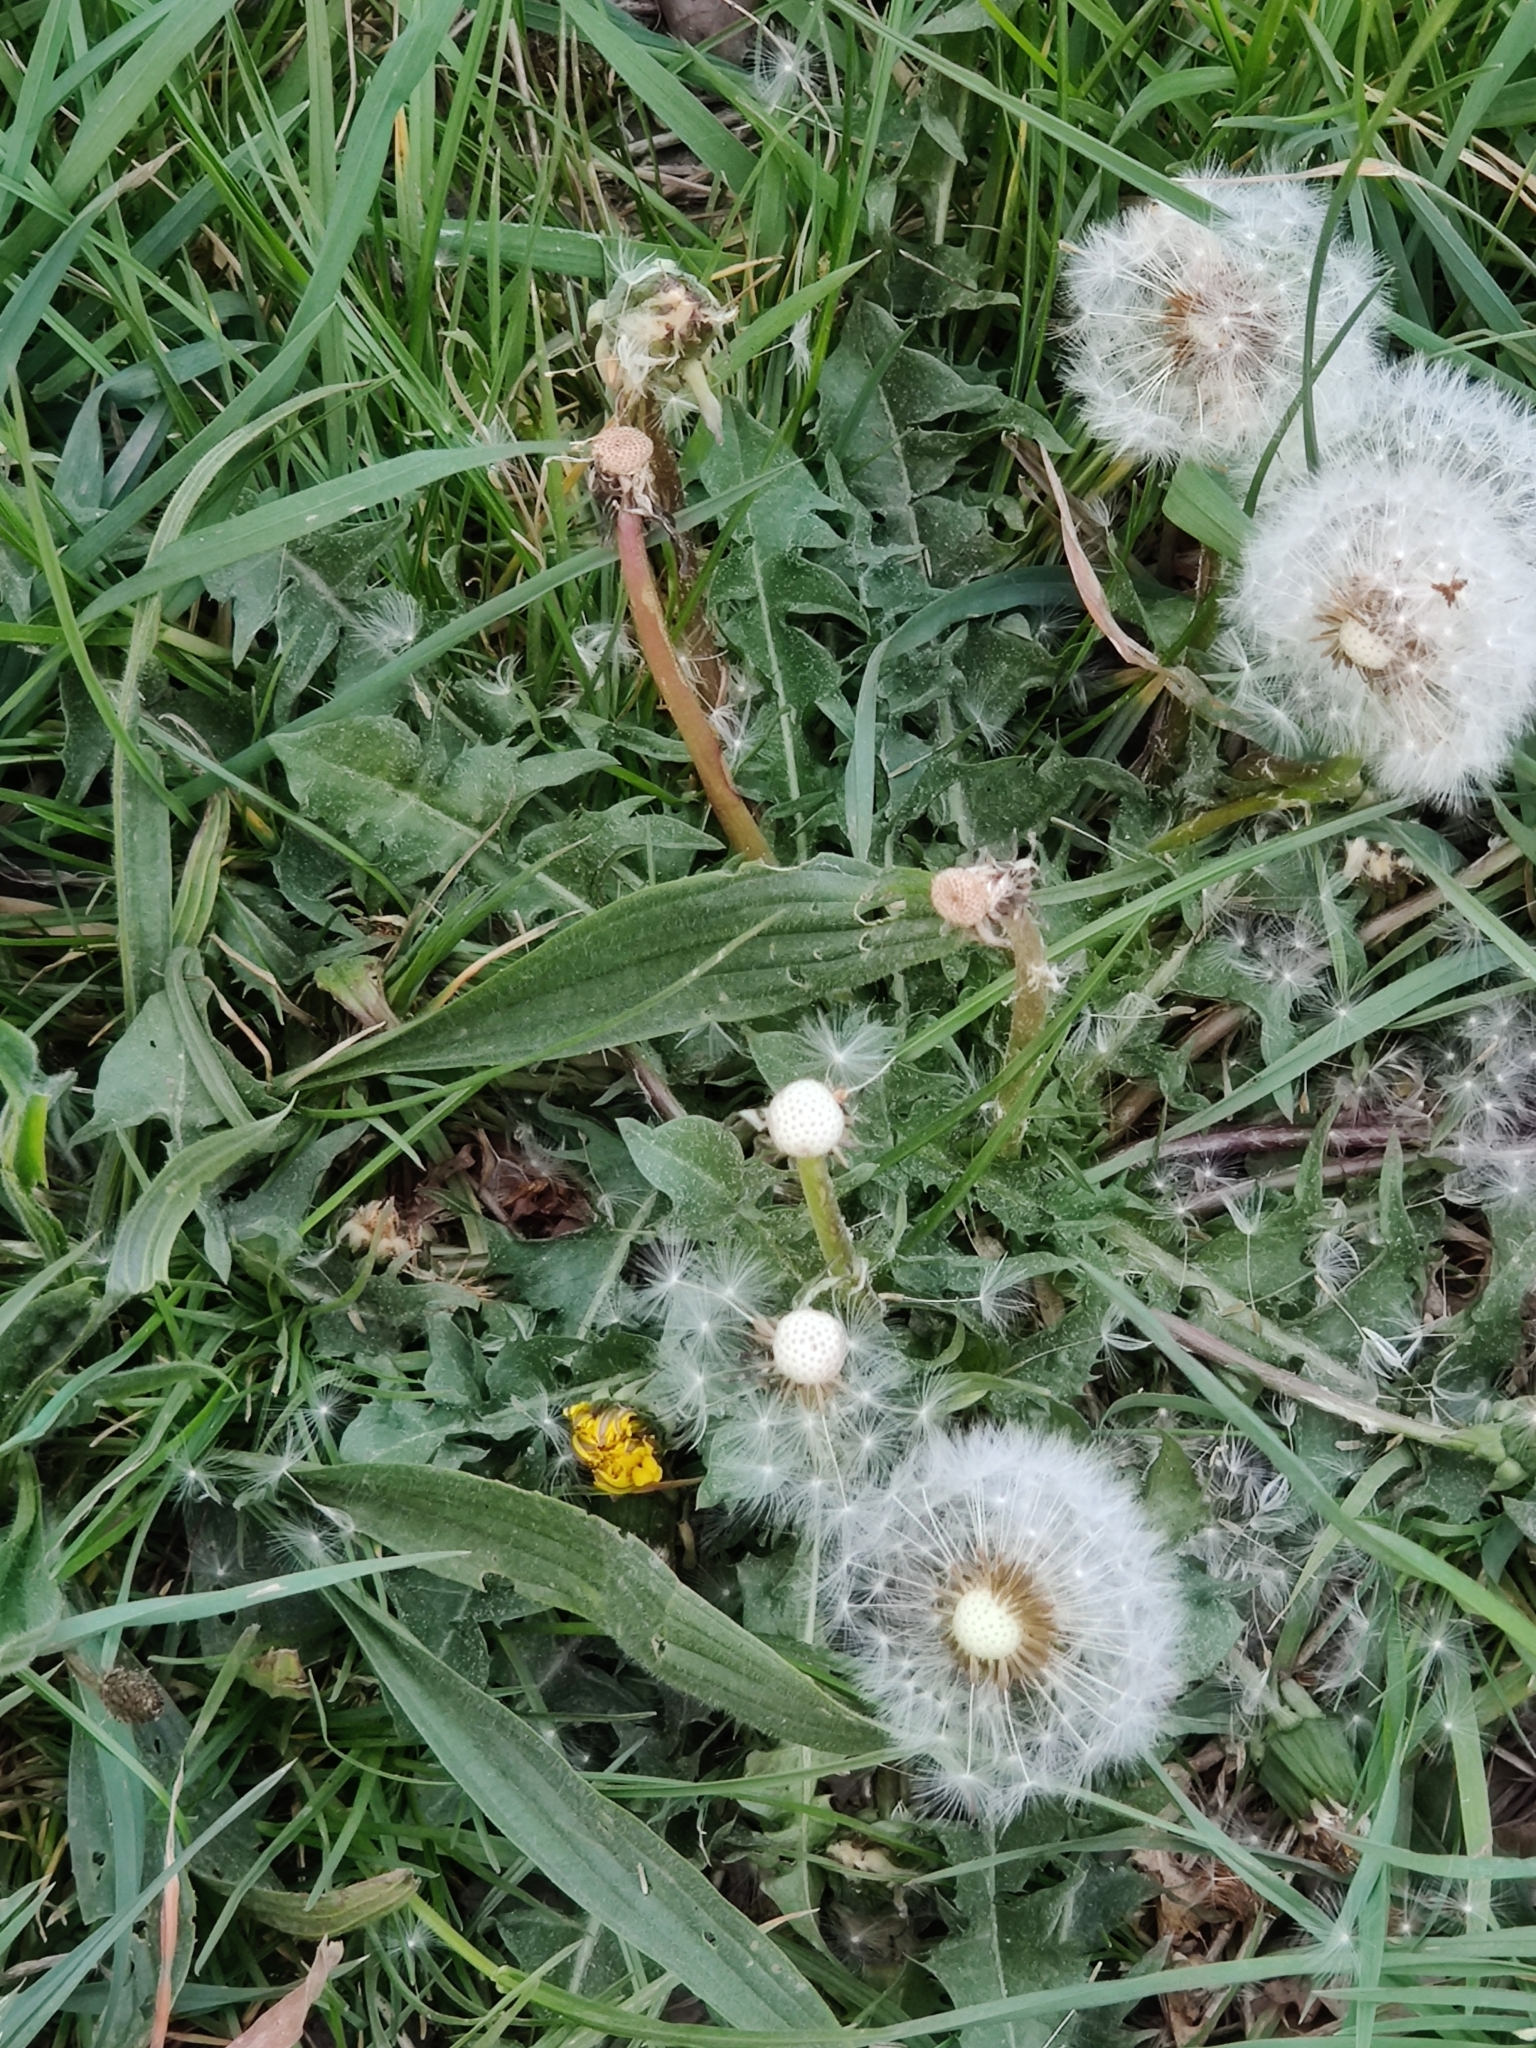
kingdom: Plantae
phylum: Tracheophyta
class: Magnoliopsida
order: Asterales
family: Asteraceae
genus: Taraxacum
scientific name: Taraxacum officinale
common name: Common dandelion
